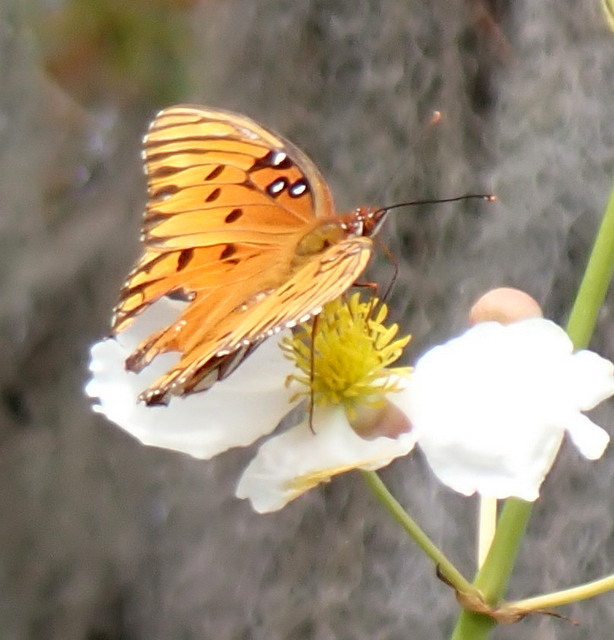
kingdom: Animalia
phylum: Arthropoda
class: Insecta
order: Lepidoptera
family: Nymphalidae
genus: Dione
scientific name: Dione vanillae
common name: Gulf fritillary
